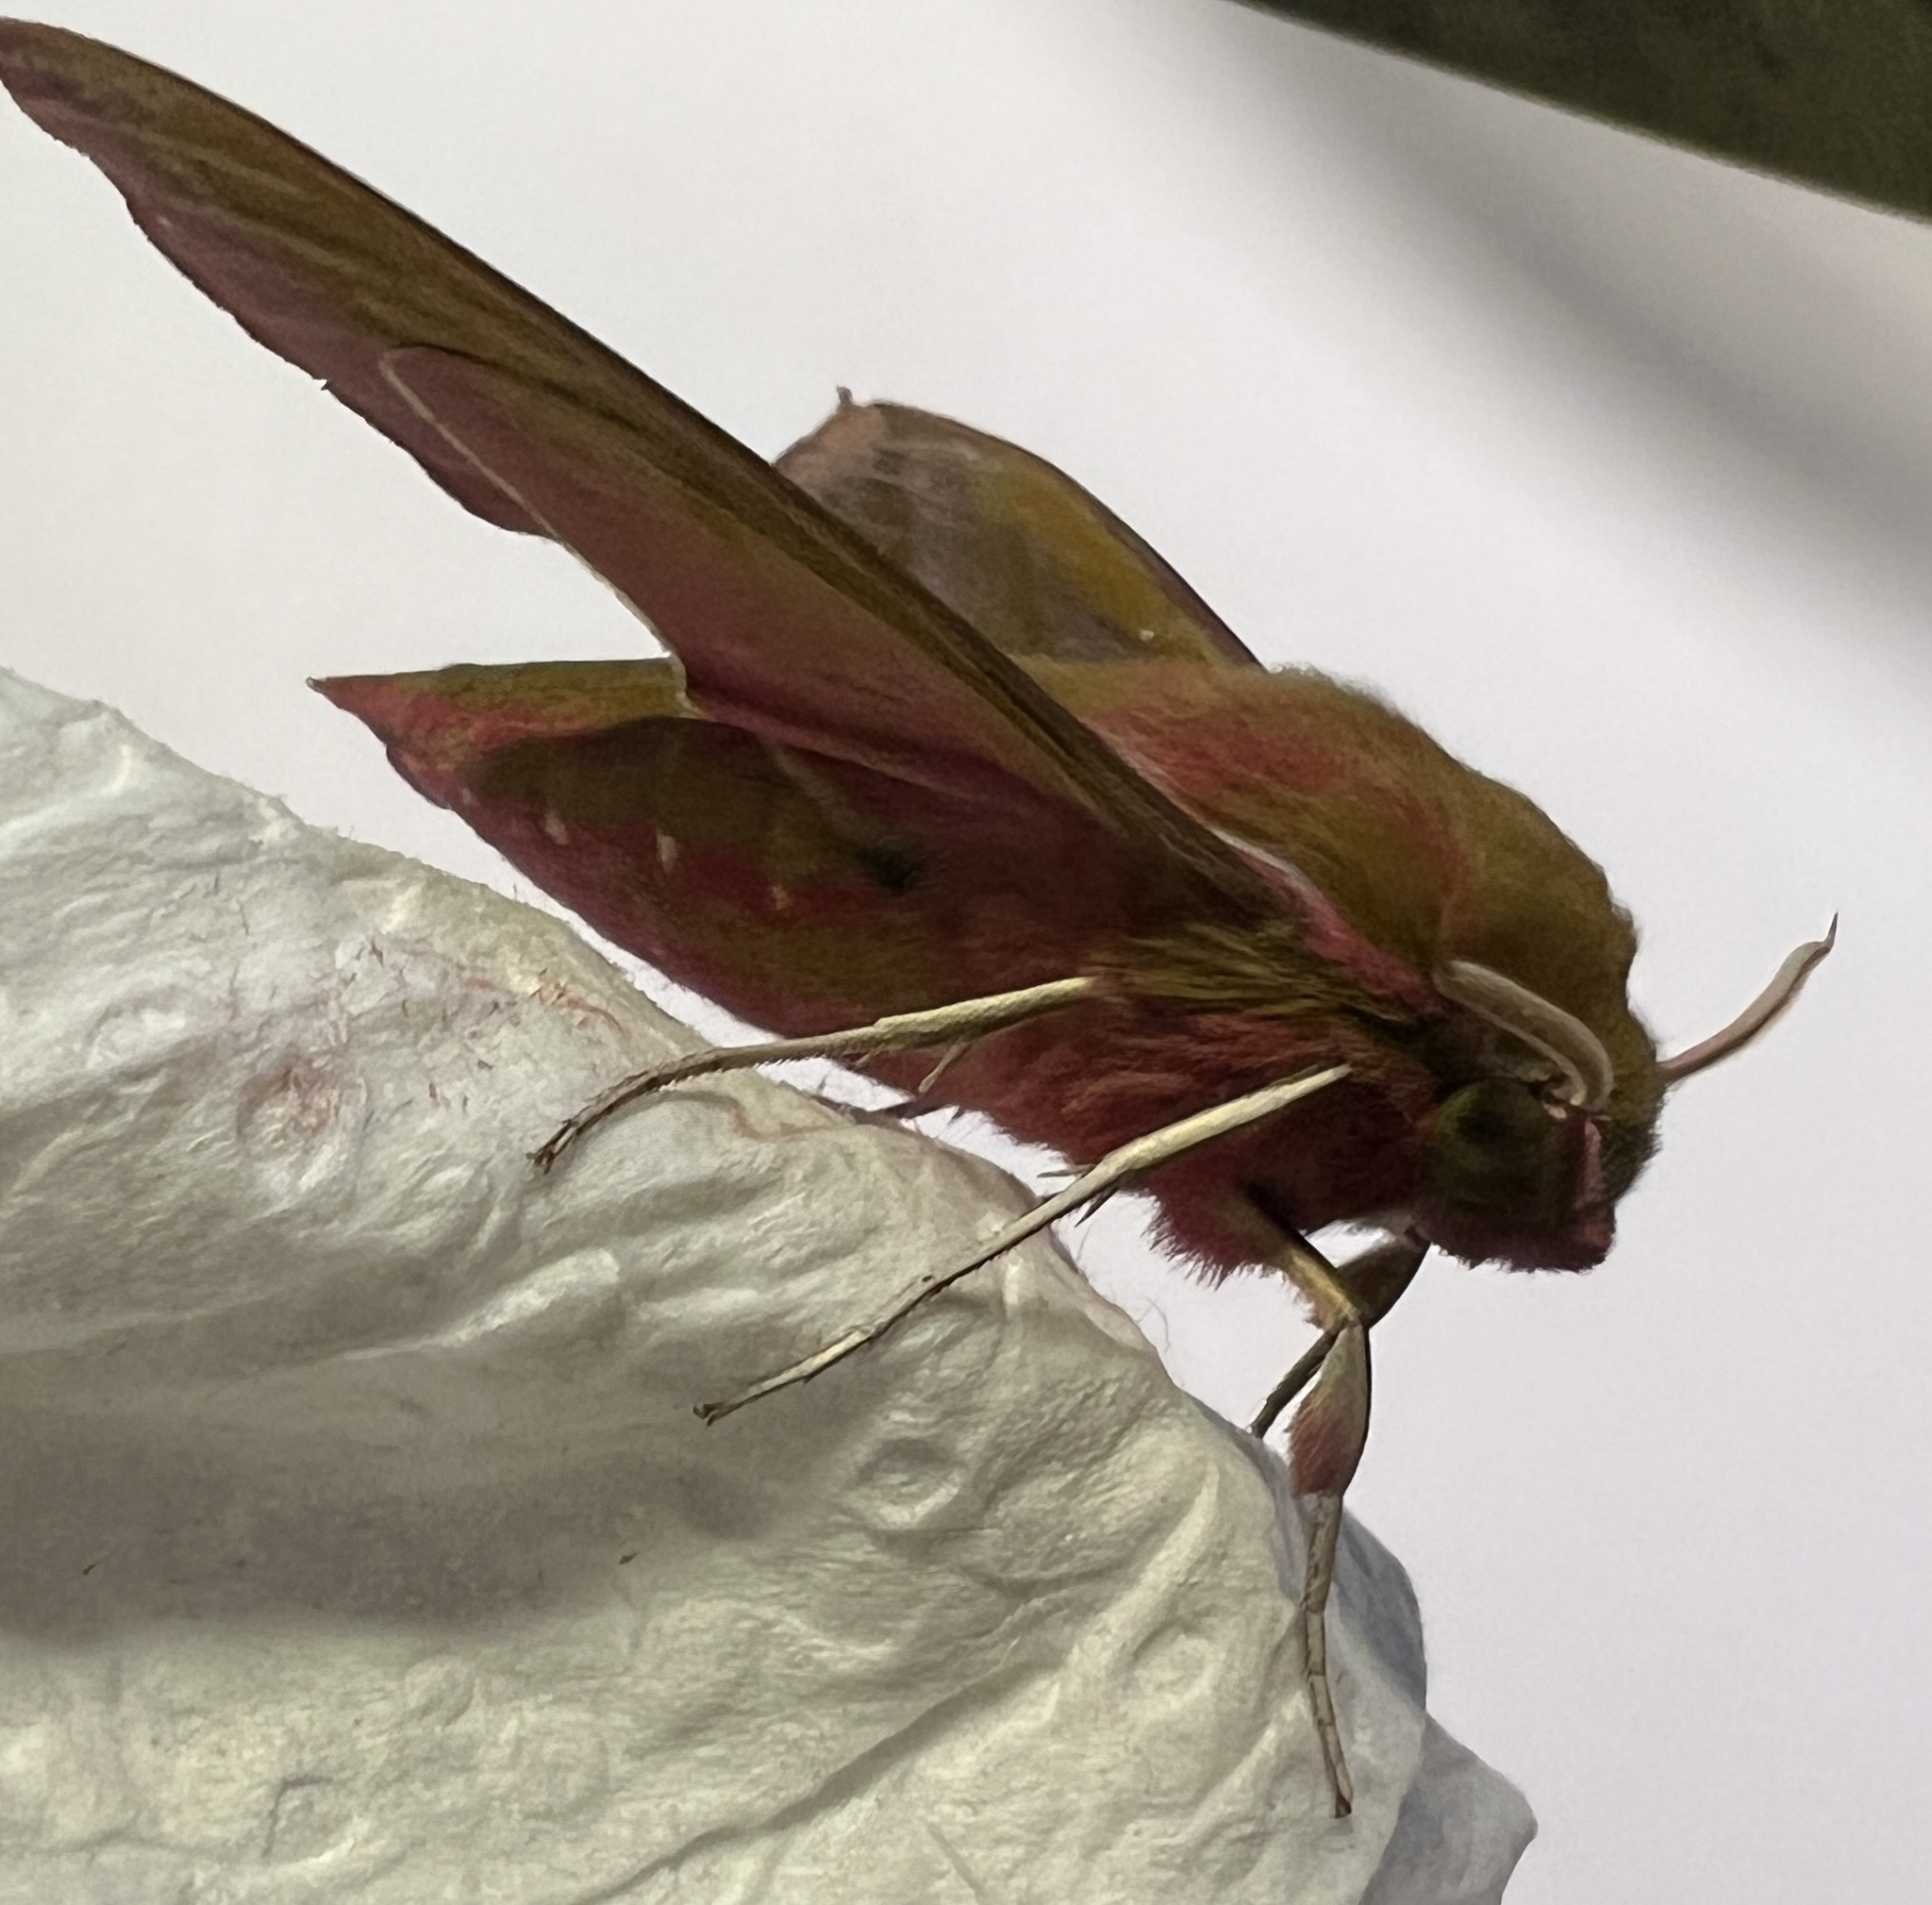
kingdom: Animalia
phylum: Arthropoda
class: Insecta
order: Lepidoptera
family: Sphingidae
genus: Deilephila
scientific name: Deilephila elpenor
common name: Elephant hawk-moth
